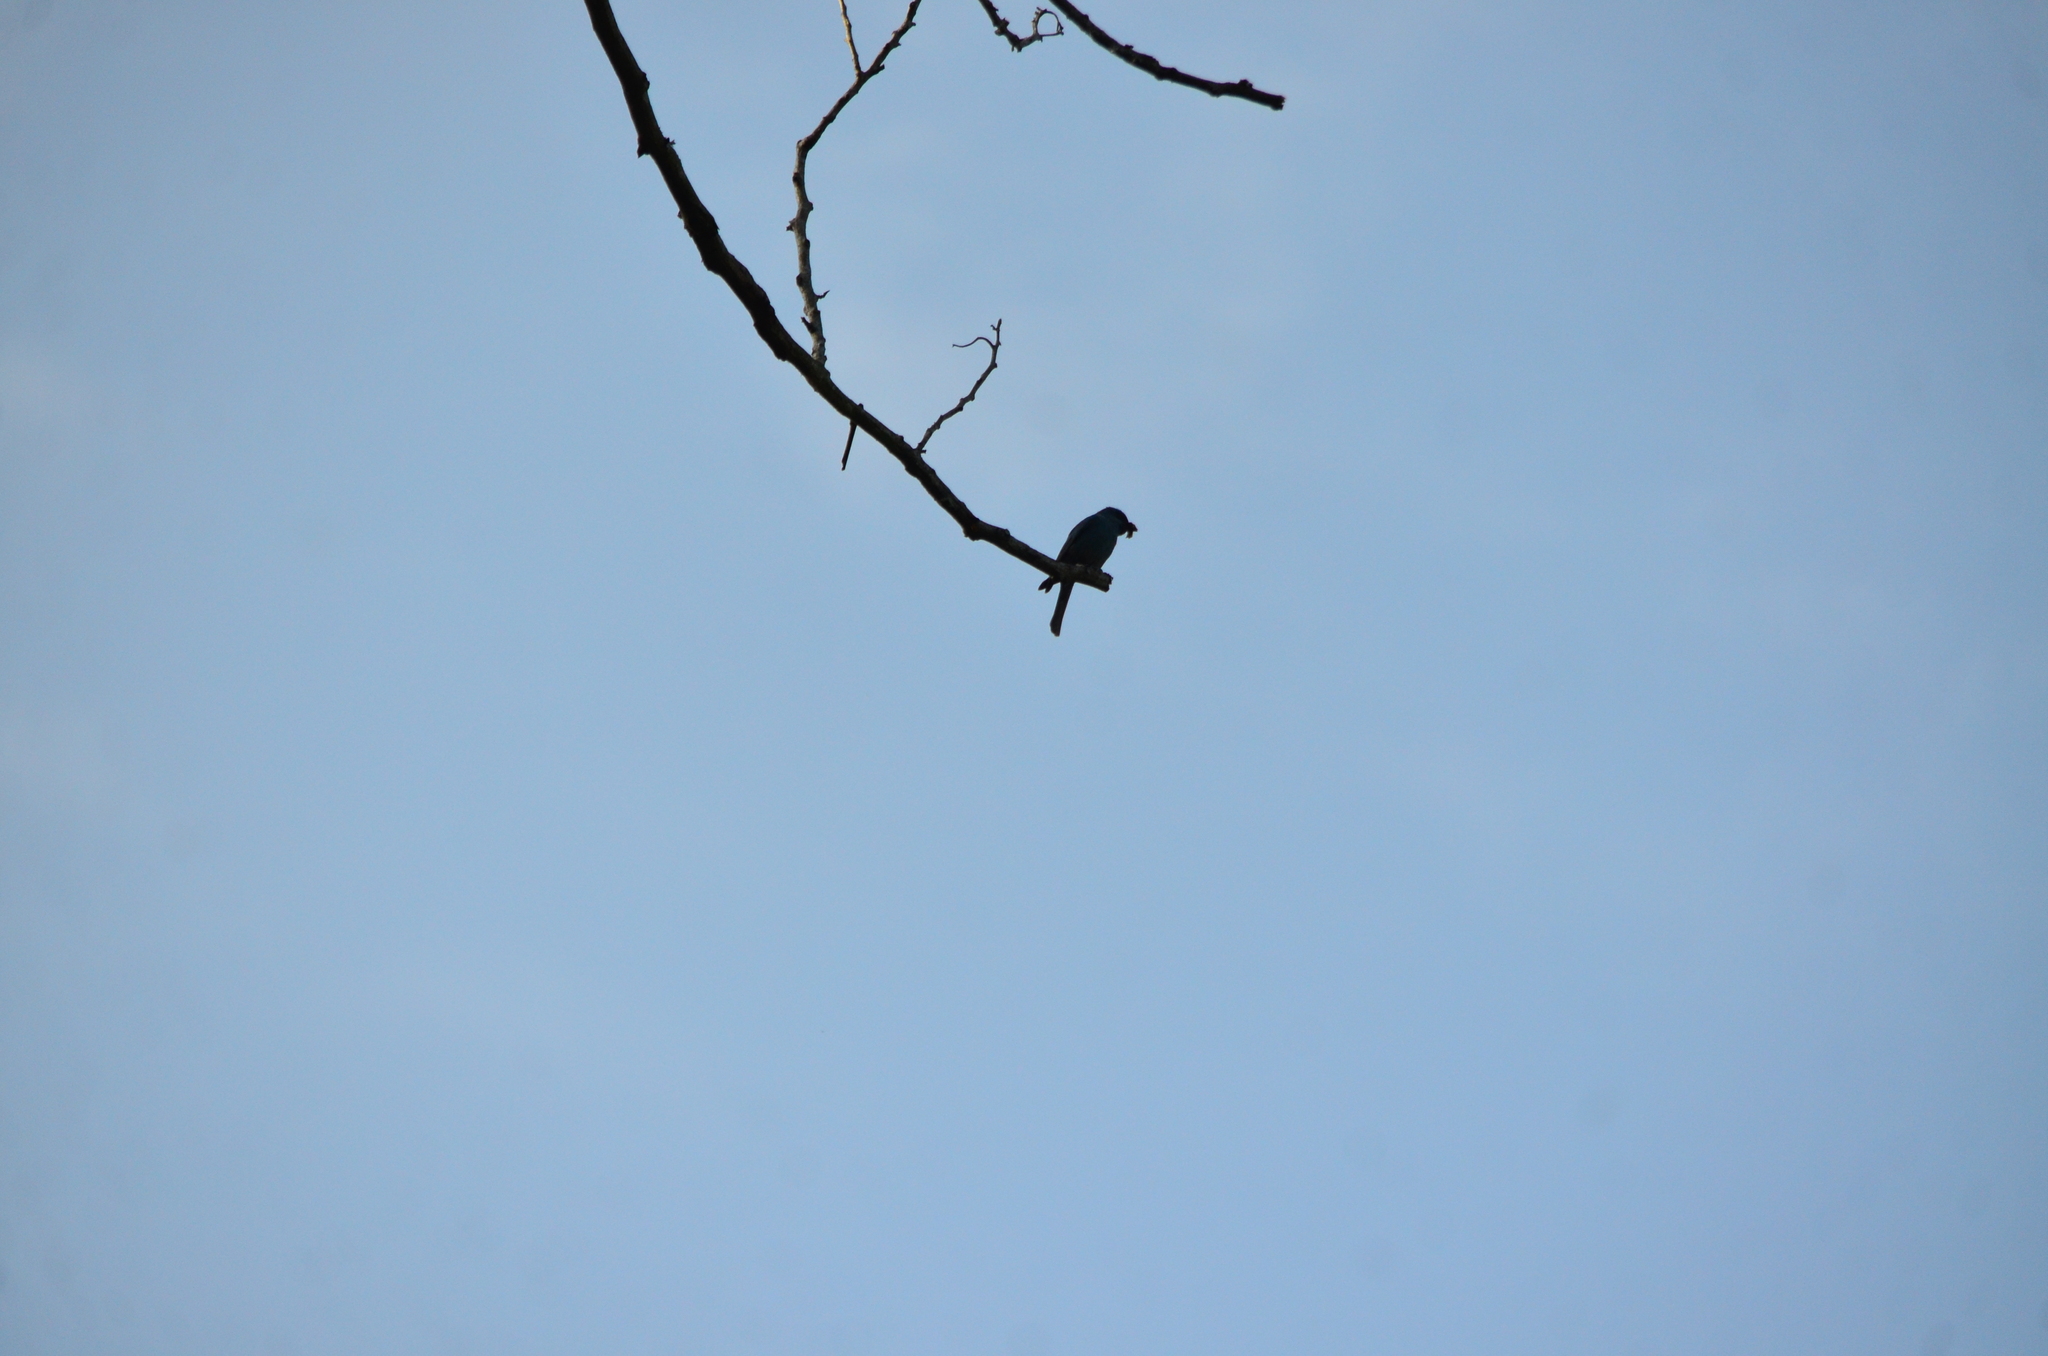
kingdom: Animalia
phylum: Chordata
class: Aves
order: Passeriformes
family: Muscicapidae
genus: Eumyias
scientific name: Eumyias thalassinus
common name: Verditer flycatcher
